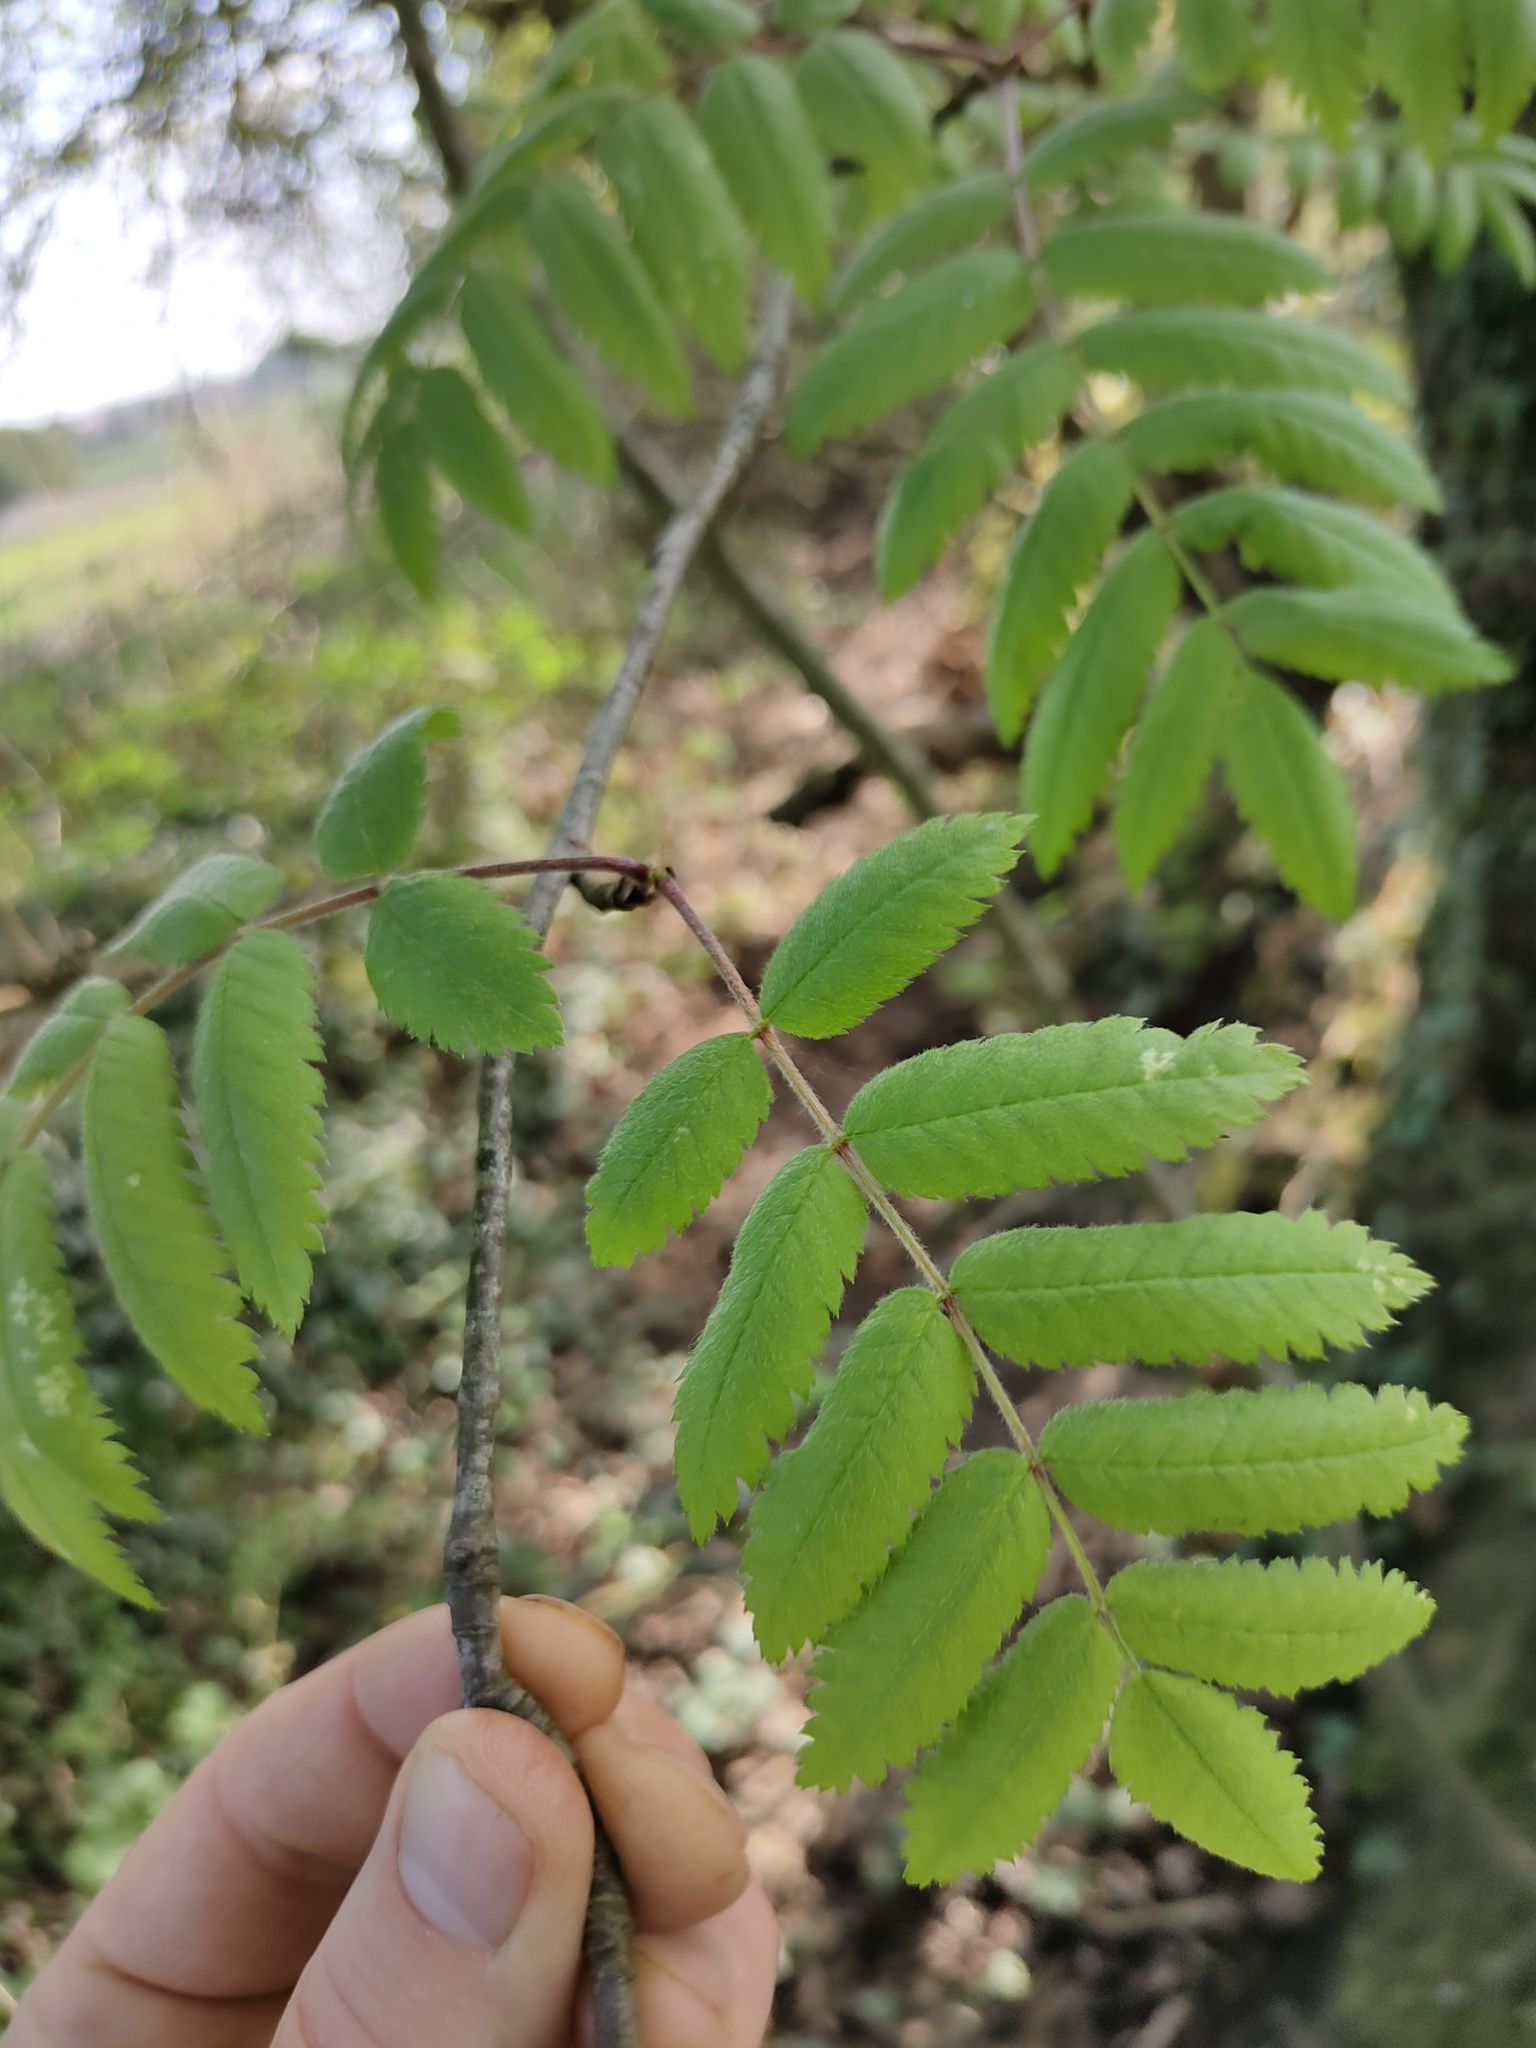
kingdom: Plantae
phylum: Tracheophyta
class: Magnoliopsida
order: Rosales
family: Rosaceae
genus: Sorbus
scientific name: Sorbus aucuparia
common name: Rowan
